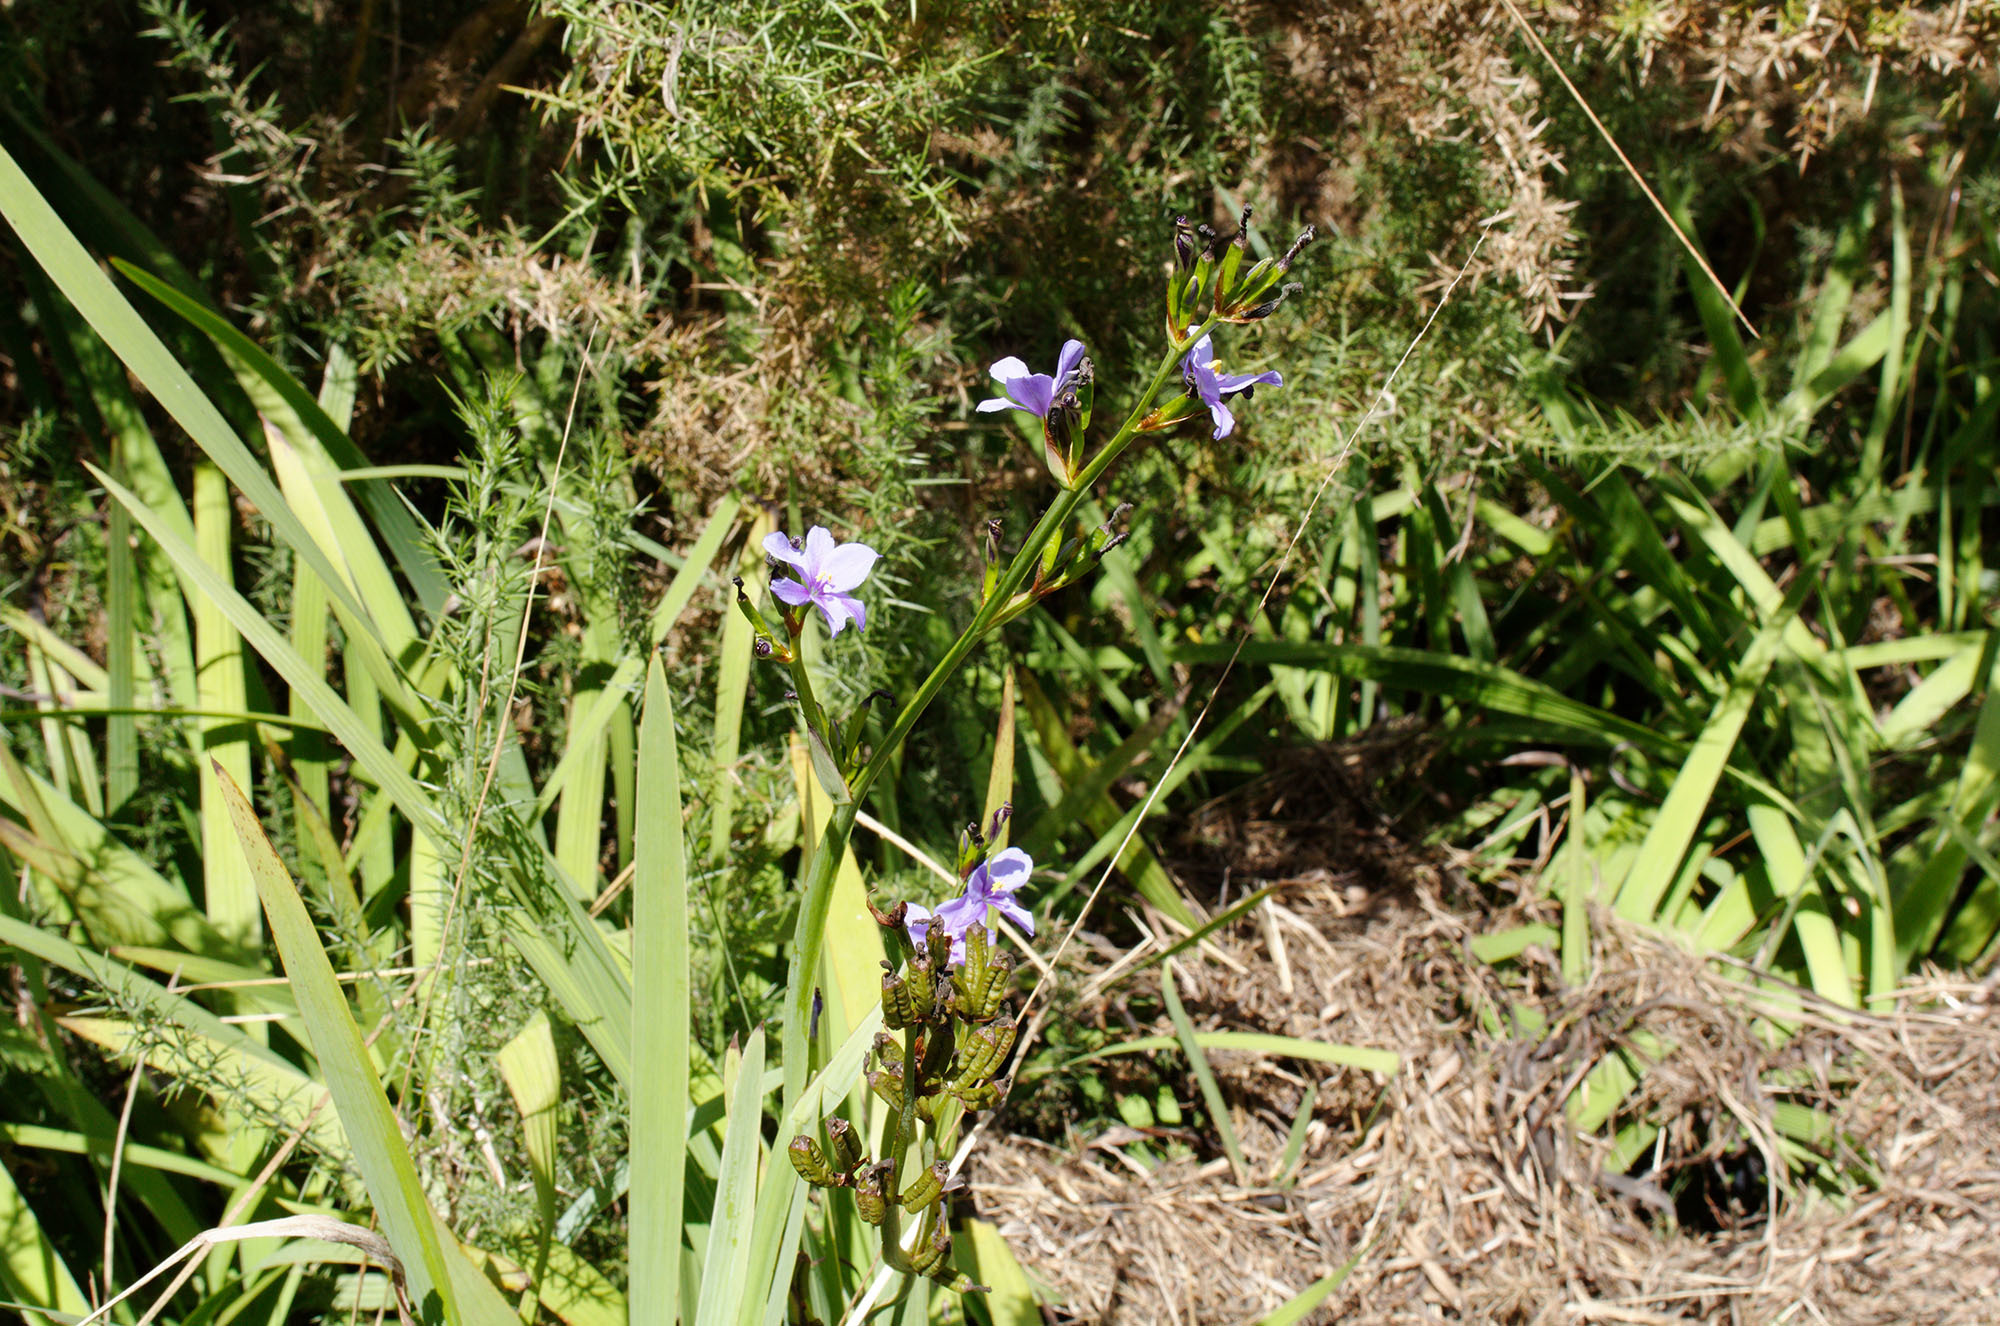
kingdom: Plantae
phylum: Tracheophyta
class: Liliopsida
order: Asparagales
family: Iridaceae
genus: Aristea
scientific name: Aristea ecklonii
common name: Blue corn-lily
